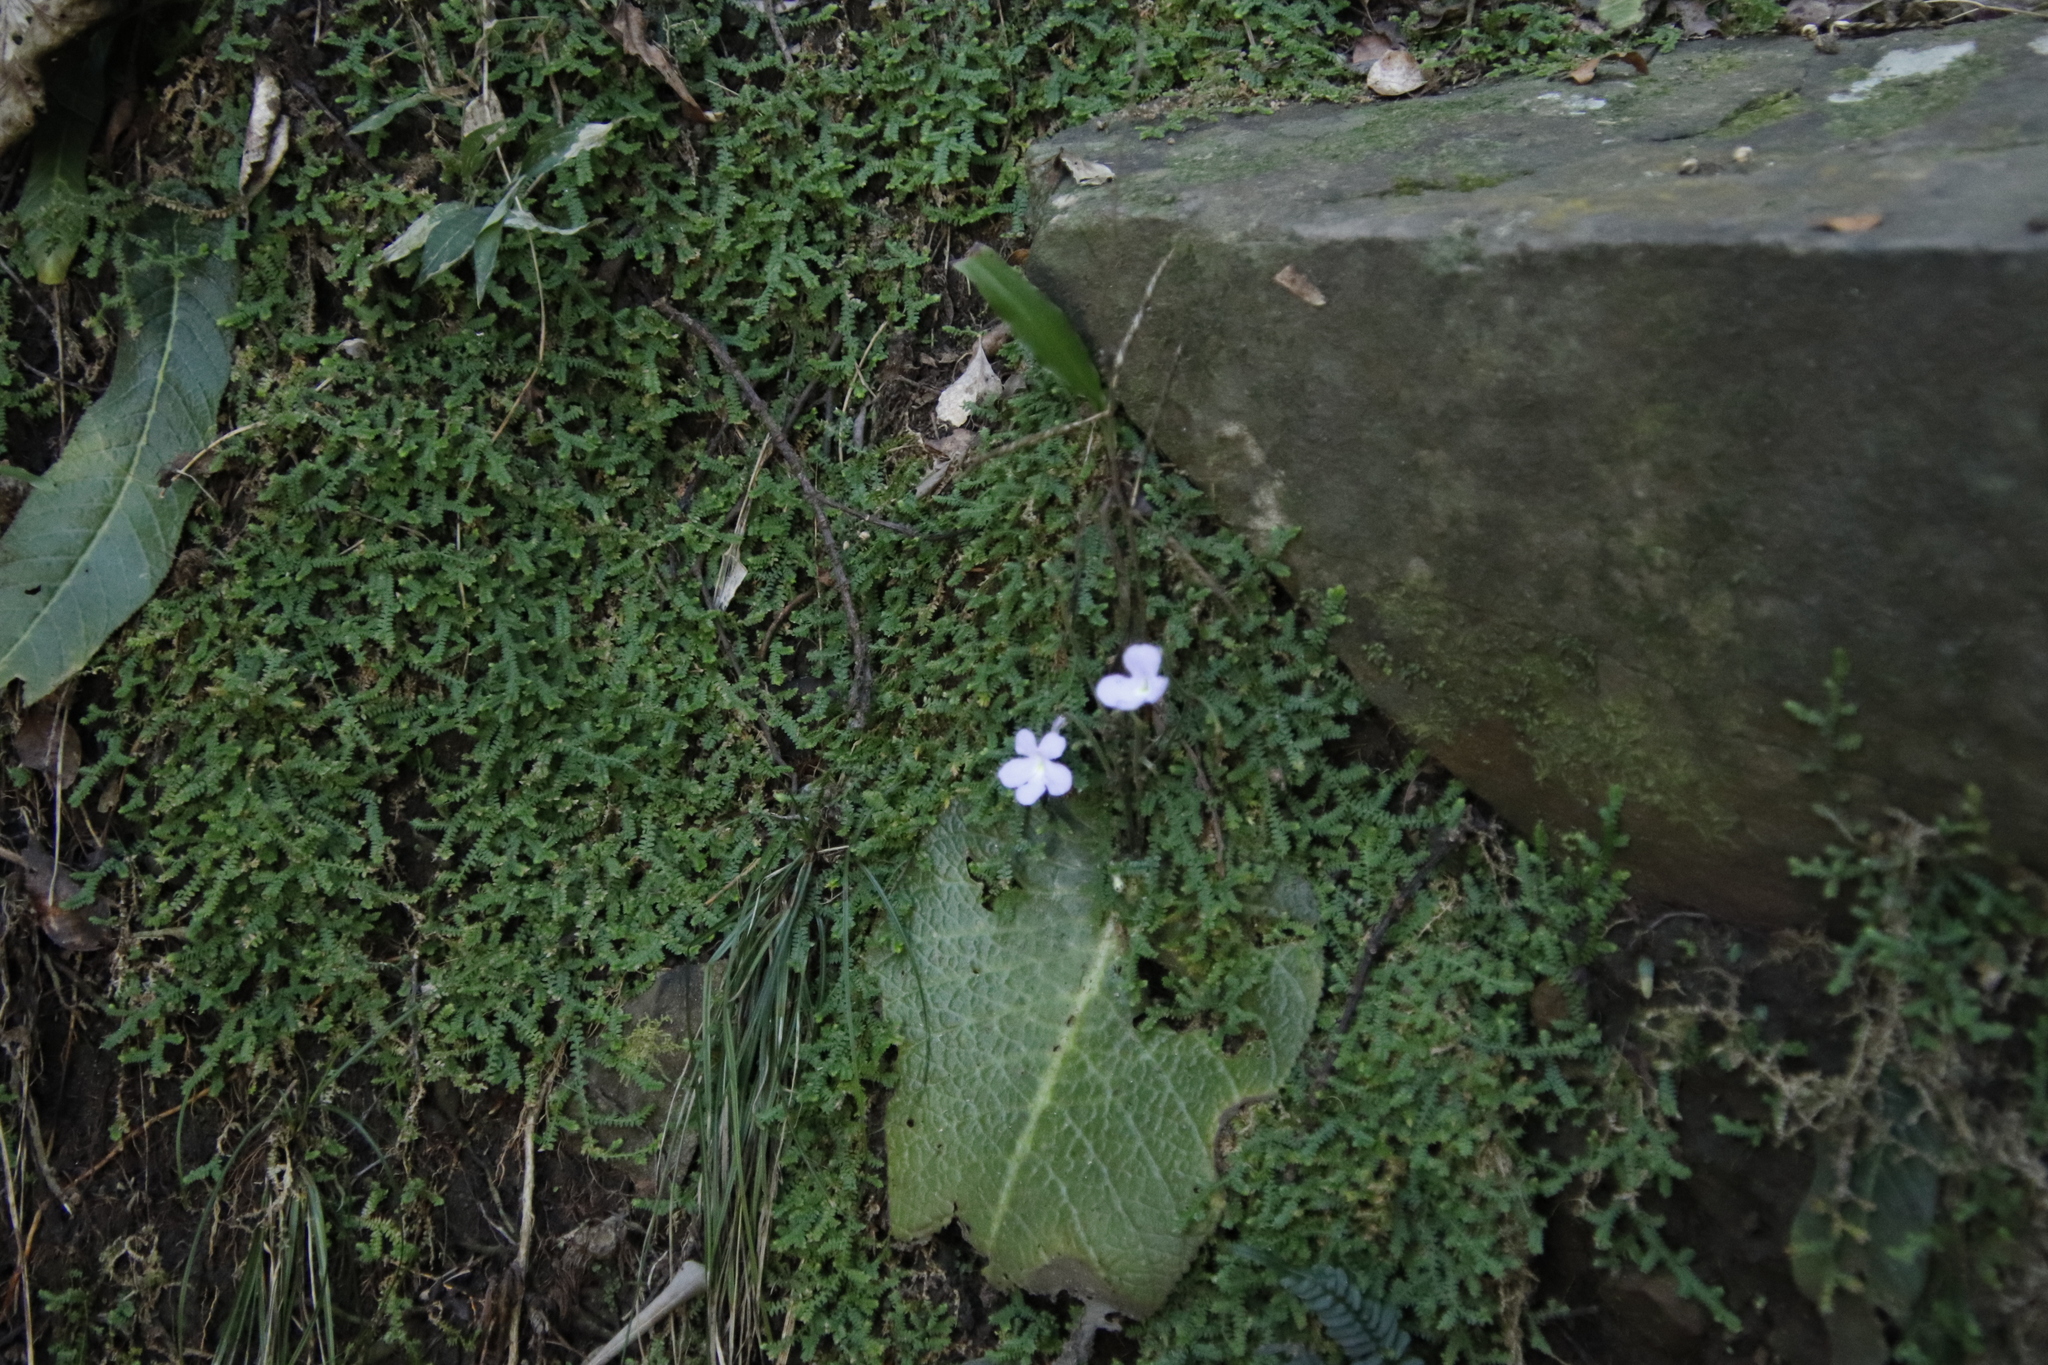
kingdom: Plantae
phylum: Tracheophyta
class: Magnoliopsida
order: Lamiales
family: Gesneriaceae
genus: Streptocarpus
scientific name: Streptocarpus polyanthus
